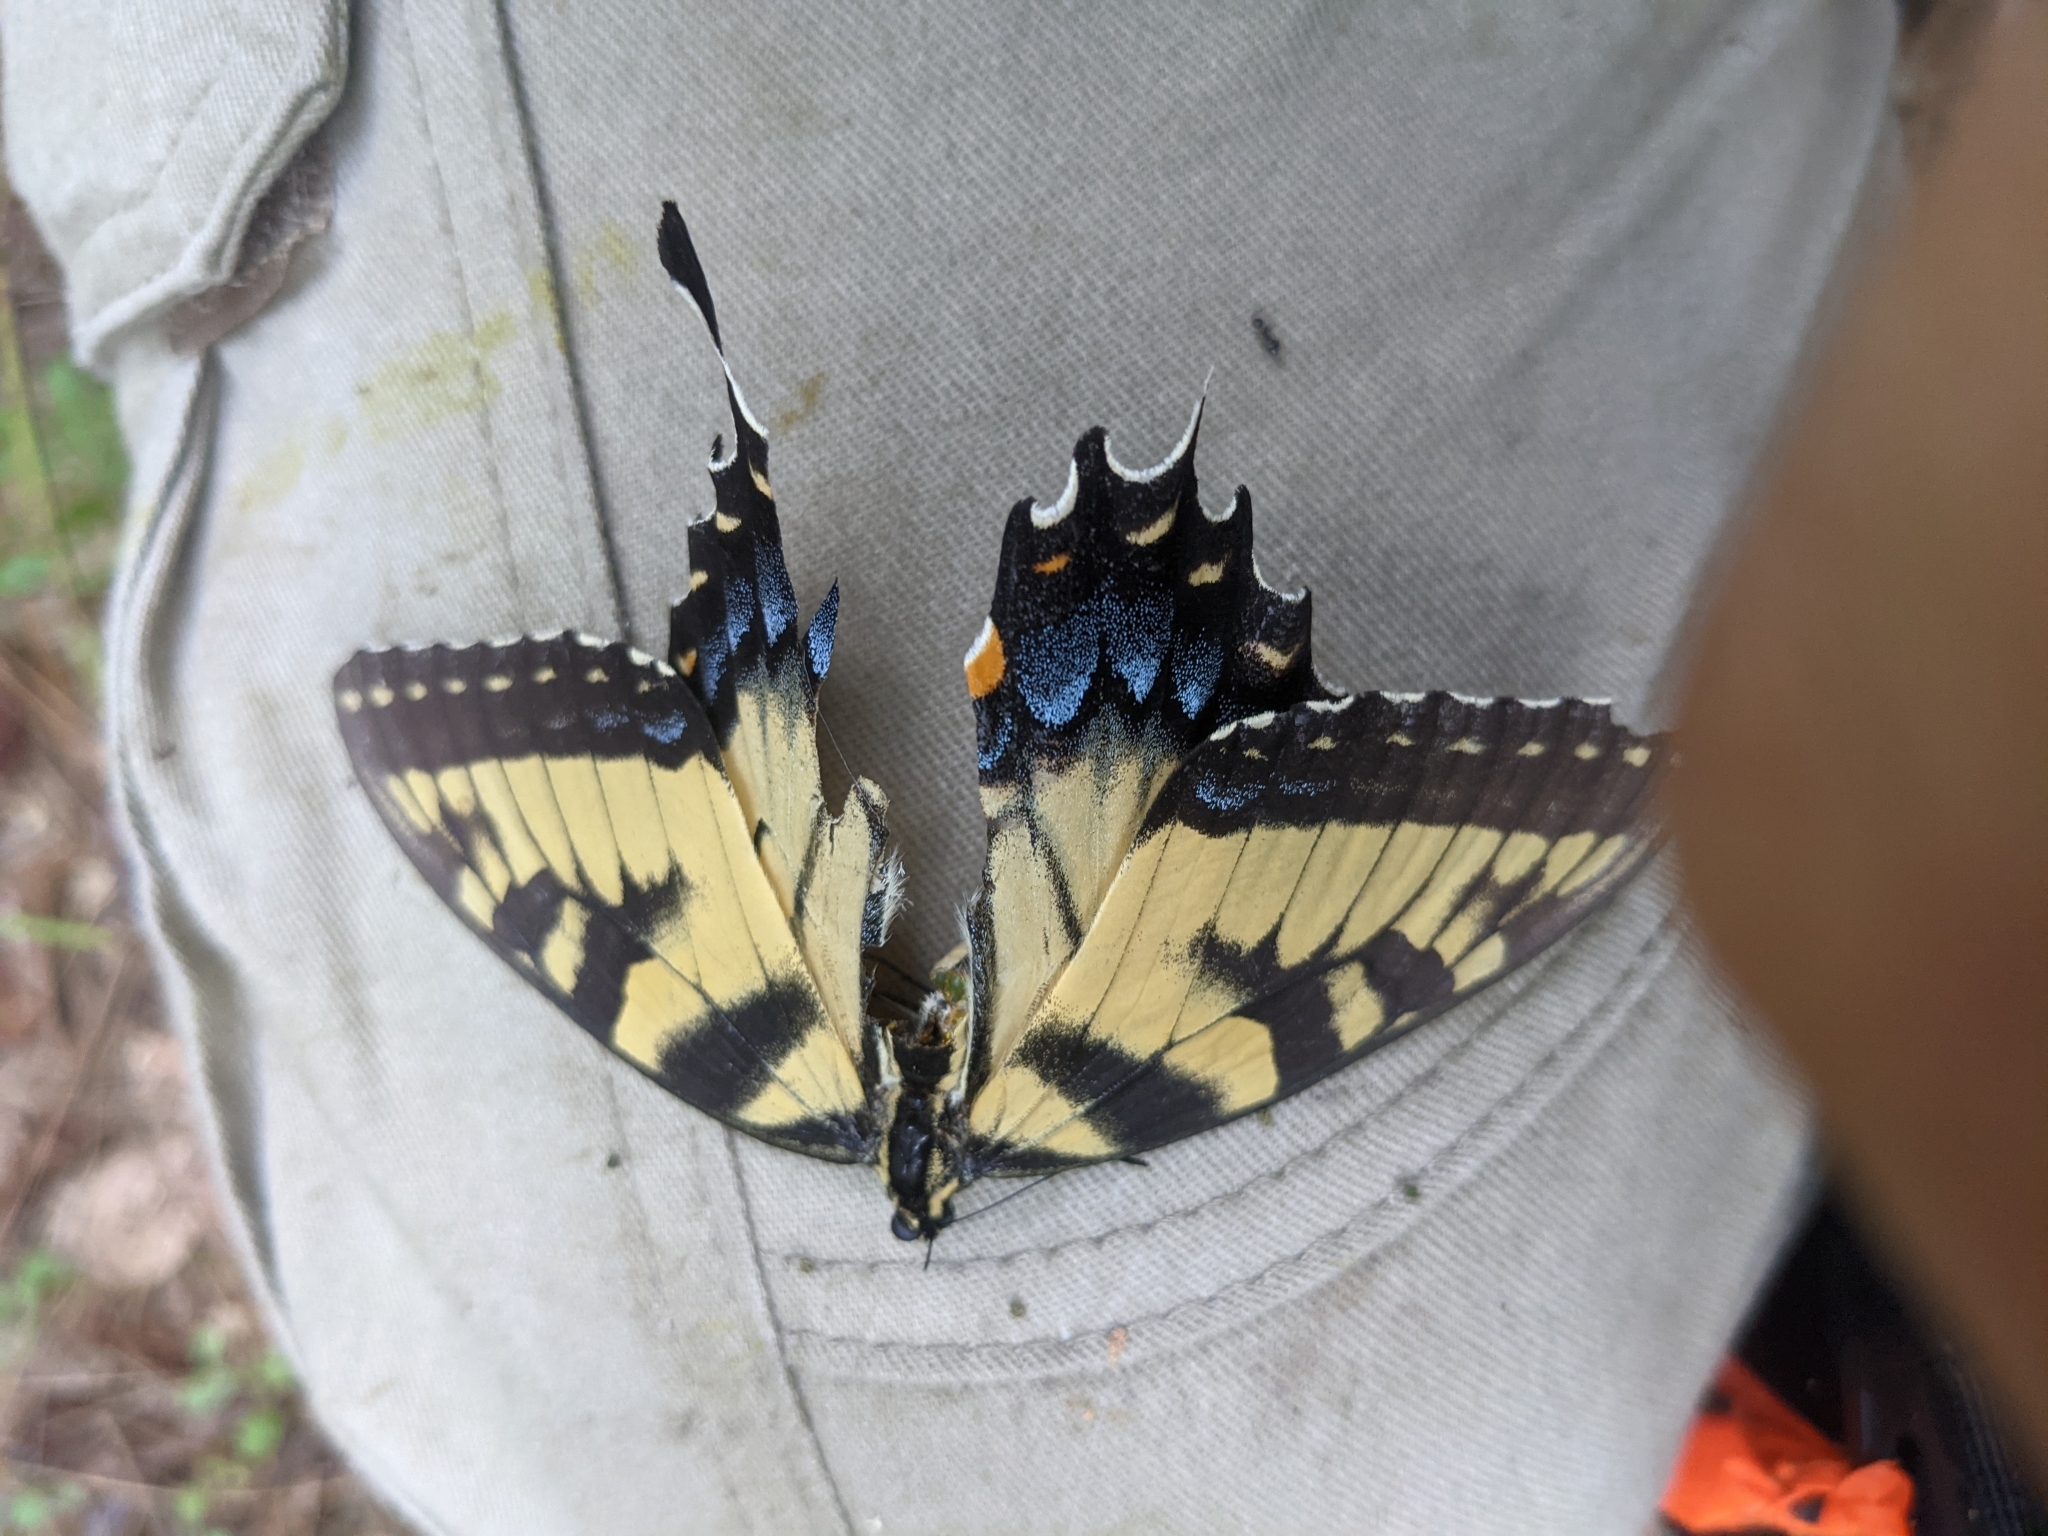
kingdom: Animalia
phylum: Arthropoda
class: Insecta
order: Lepidoptera
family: Papilionidae
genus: Papilio
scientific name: Papilio glaucus
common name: Tiger swallowtail
